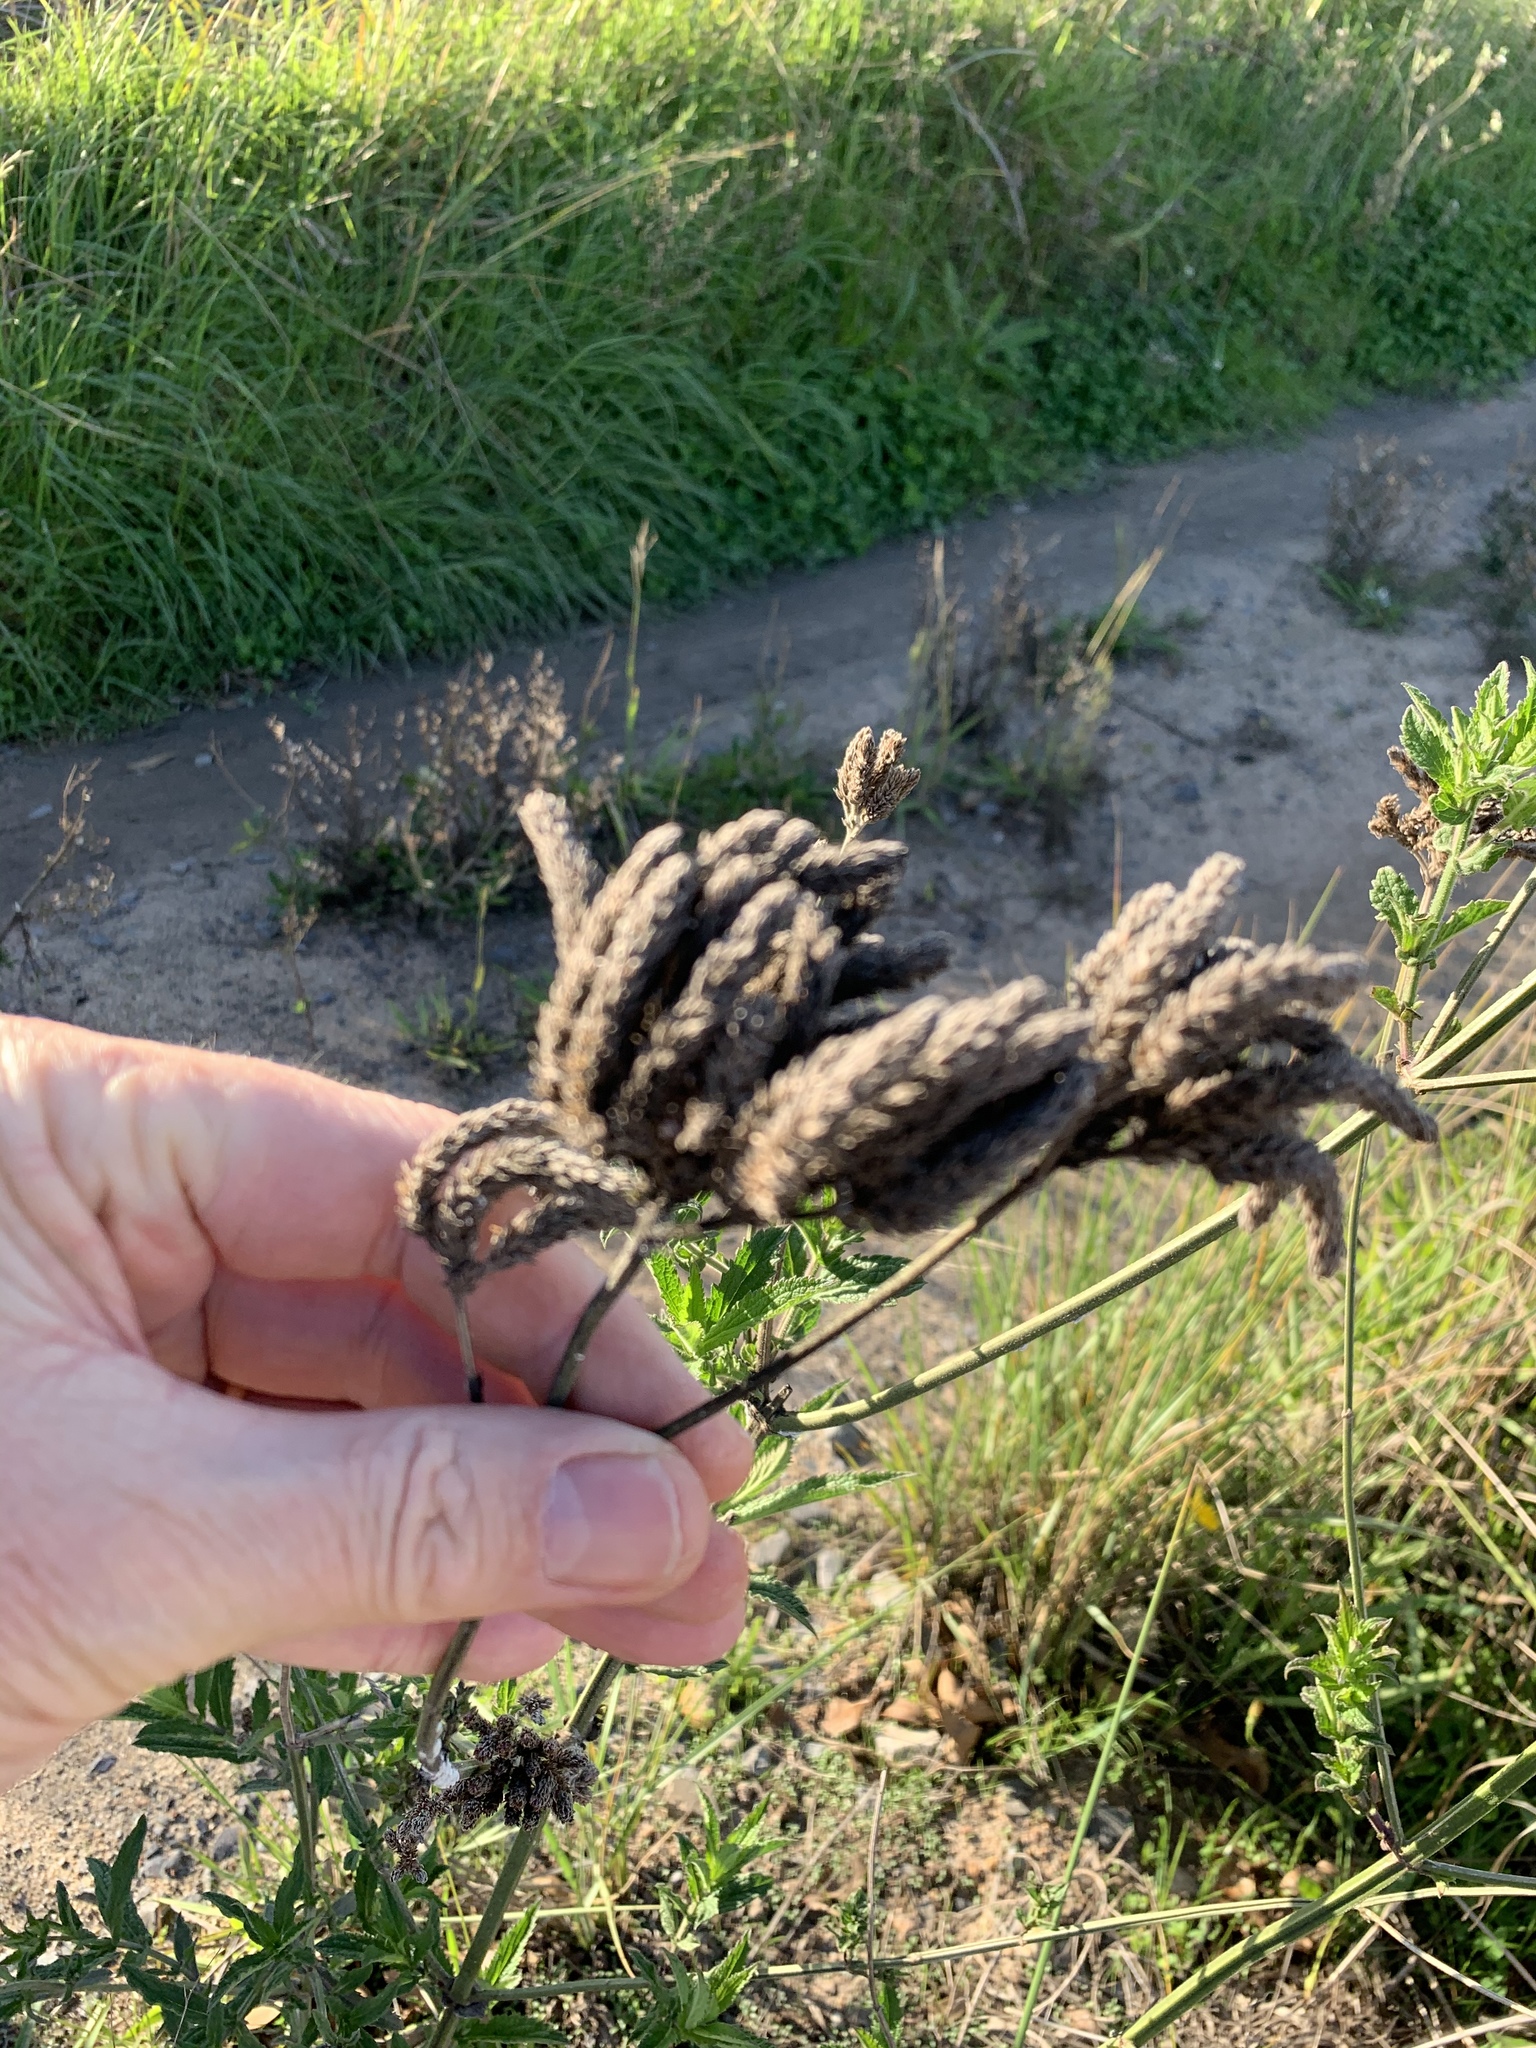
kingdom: Plantae
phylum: Tracheophyta
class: Magnoliopsida
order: Lamiales
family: Verbenaceae
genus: Verbena
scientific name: Verbena bonariensis
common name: Purpletop vervain
